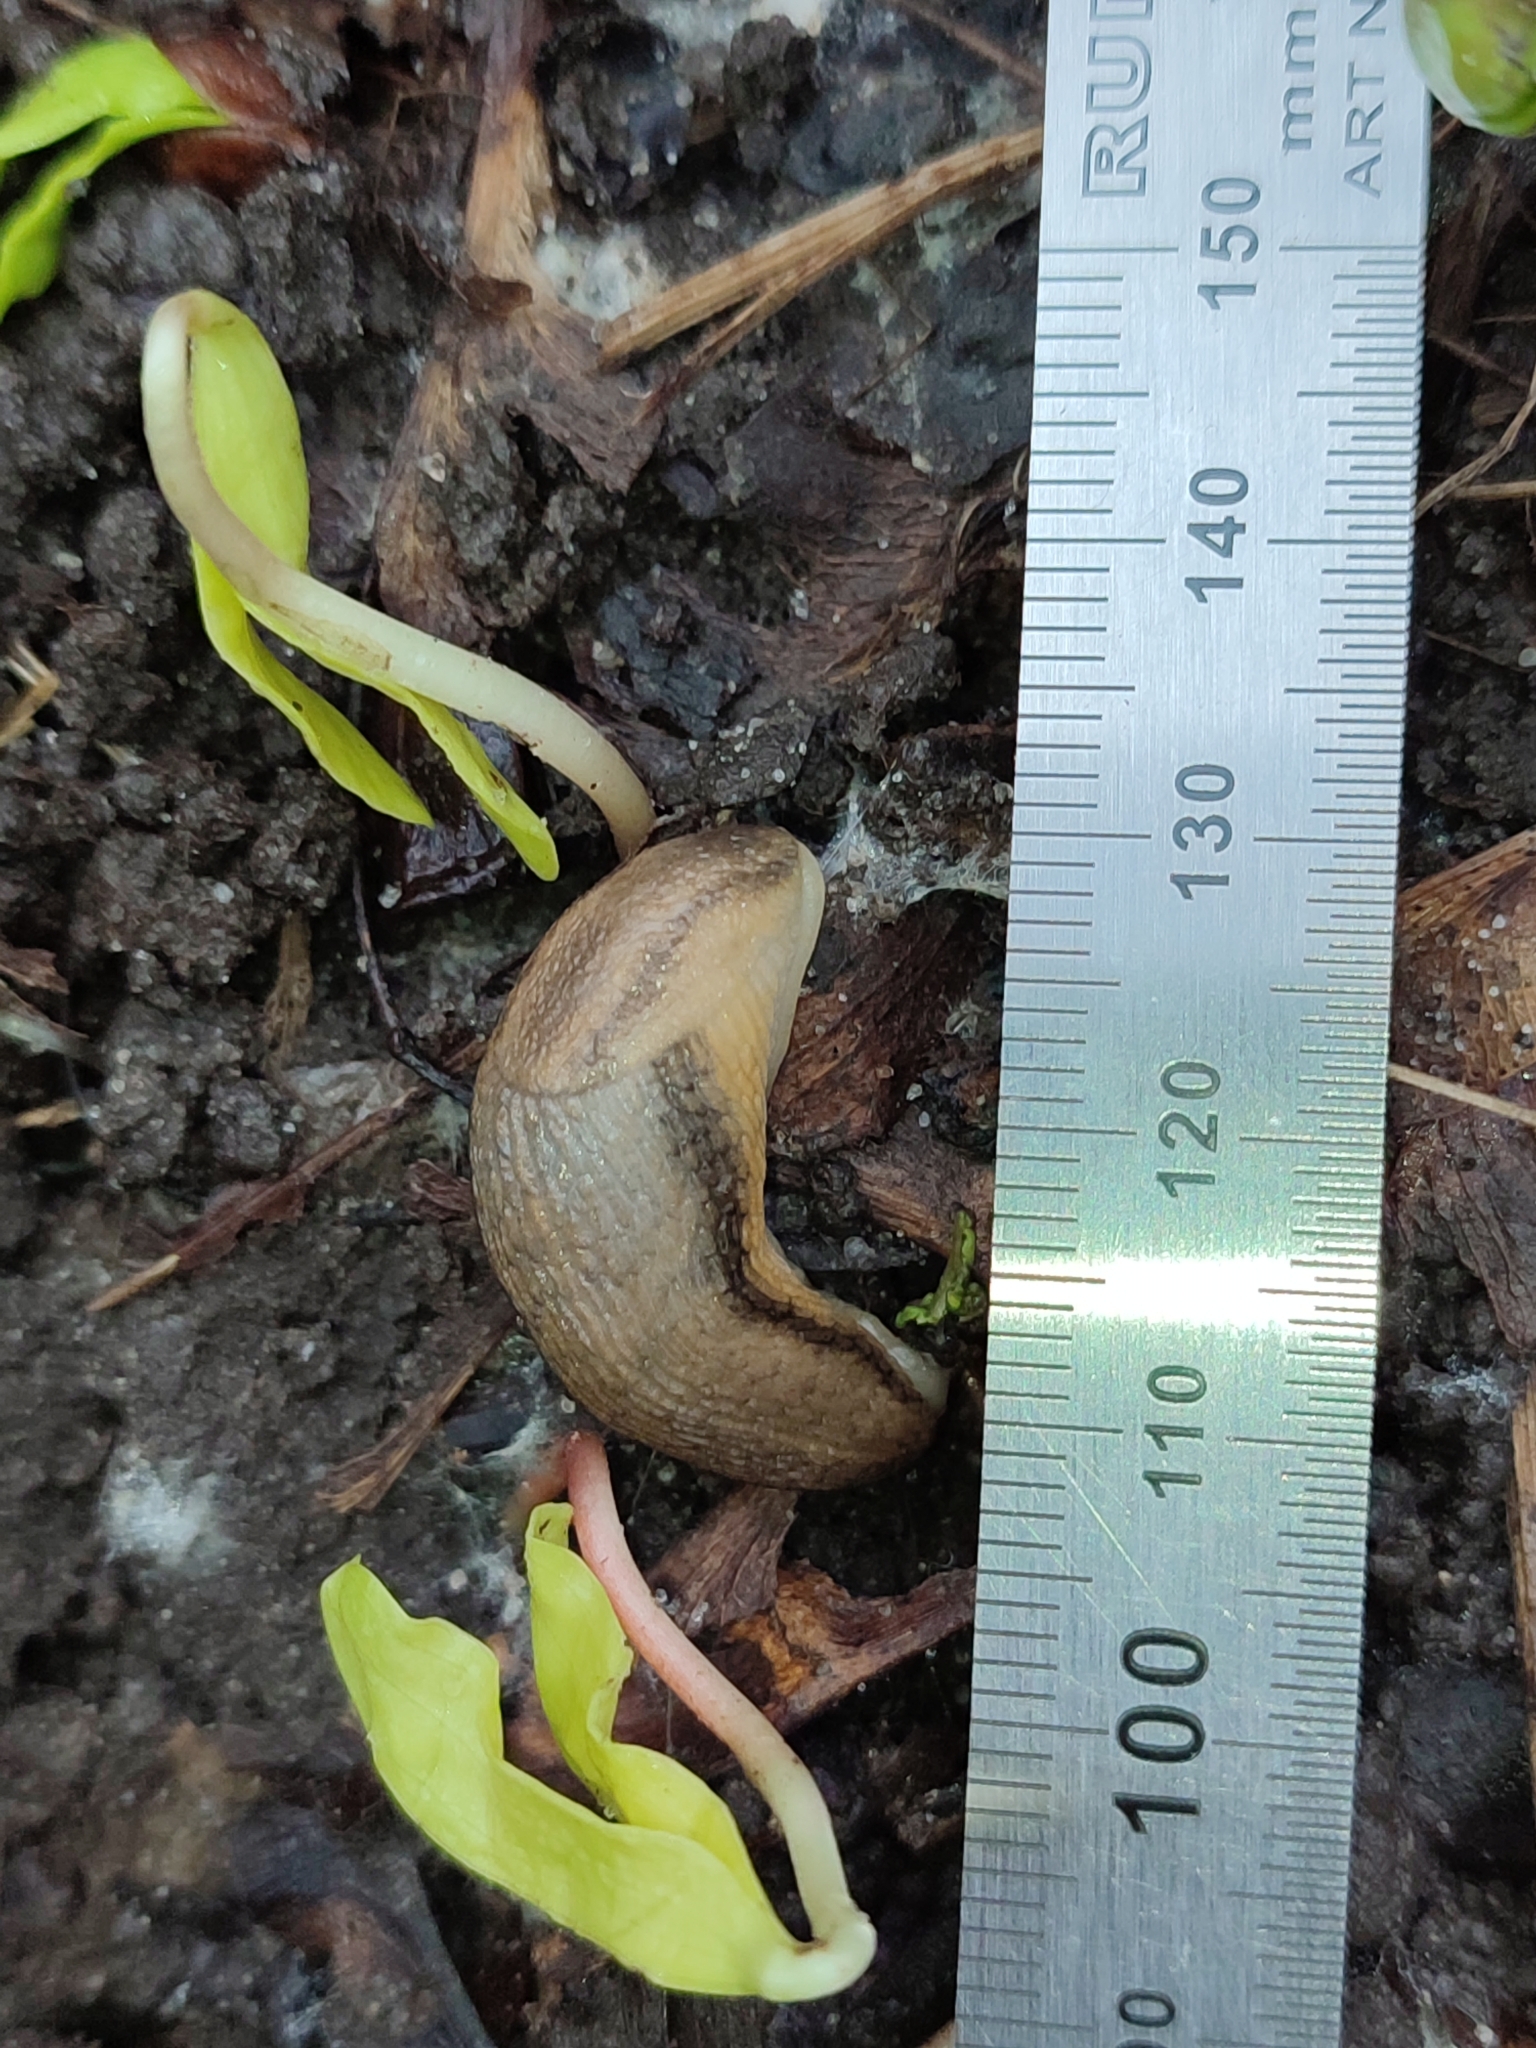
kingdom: Animalia
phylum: Mollusca
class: Gastropoda
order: Stylommatophora
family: Arionidae
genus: Arion
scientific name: Arion fasciatus
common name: Orange-banded arion
